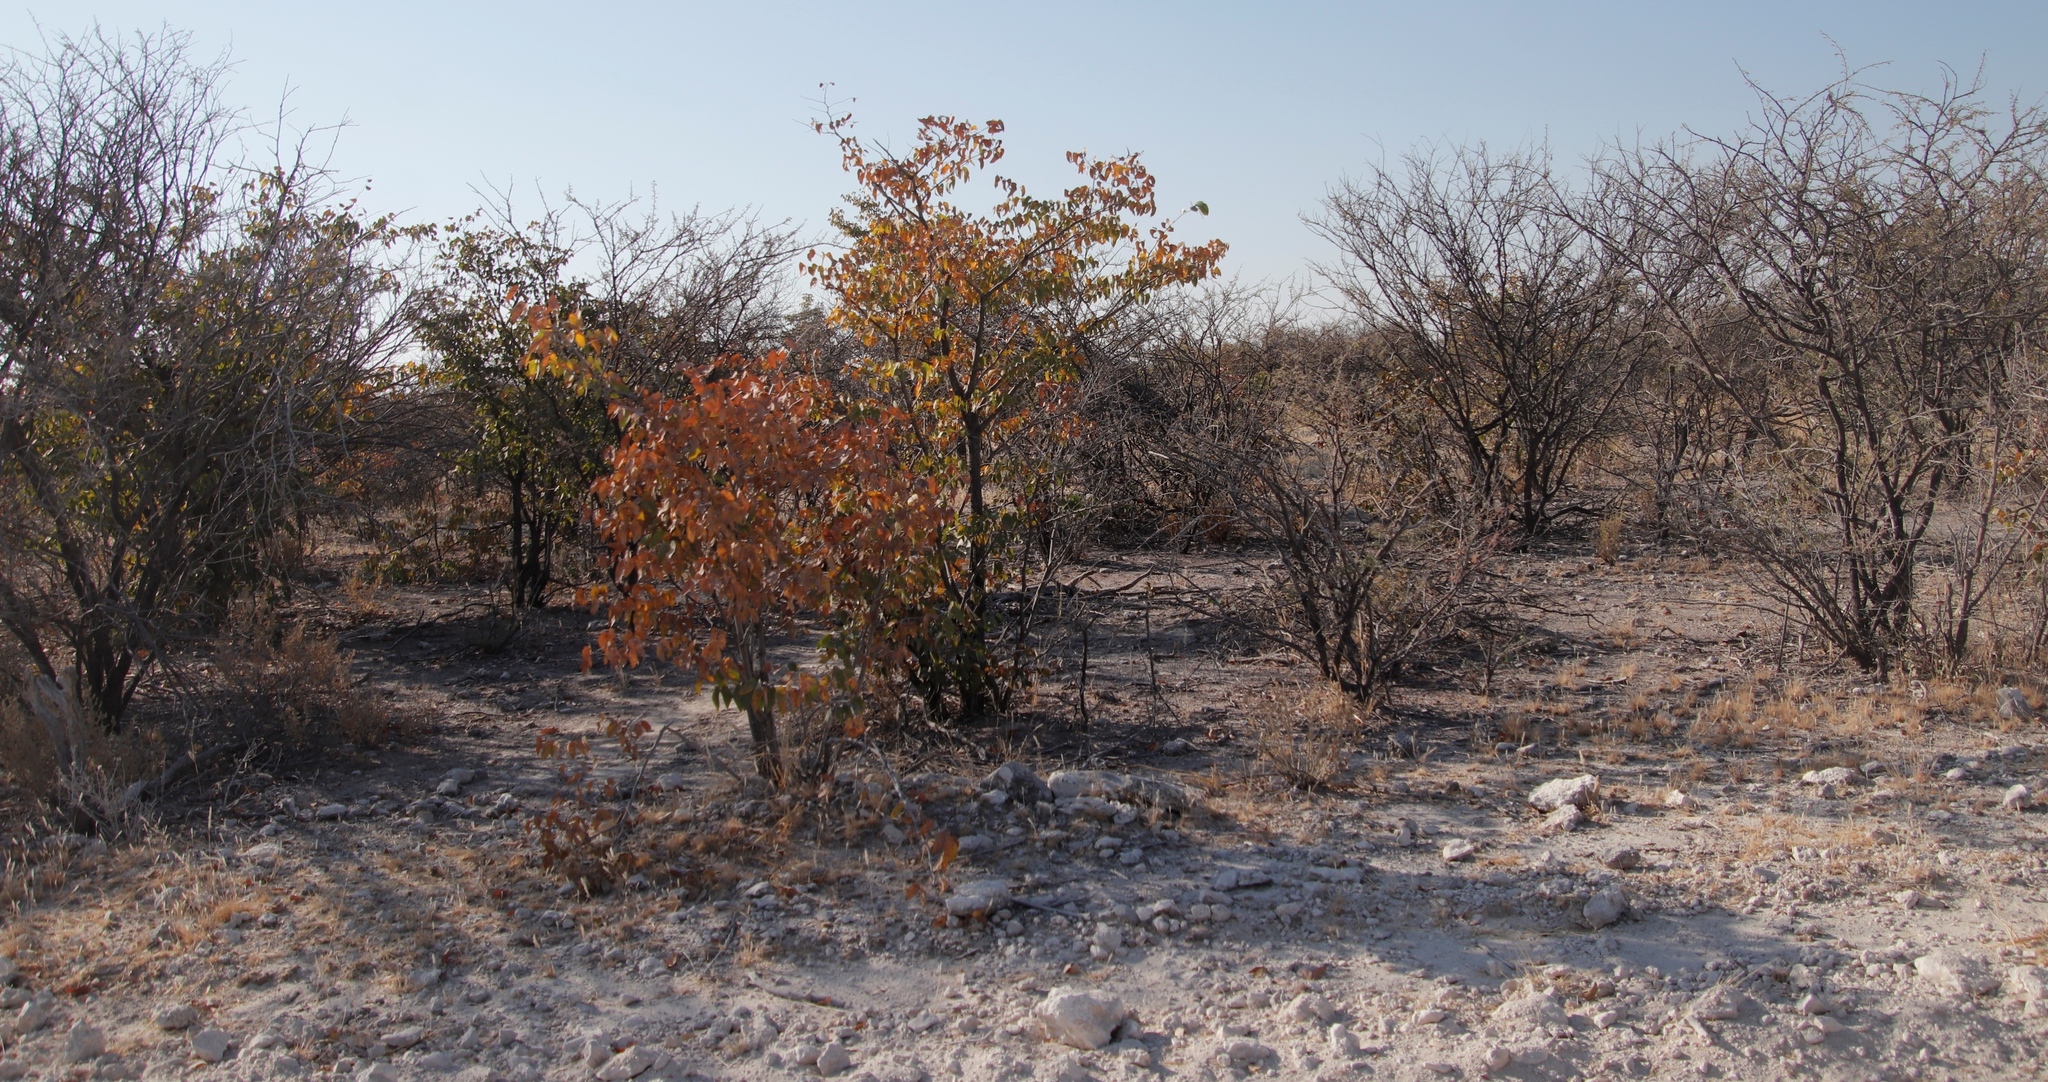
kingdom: Plantae
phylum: Tracheophyta
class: Magnoliopsida
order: Fabales
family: Fabaceae
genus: Colophospermum
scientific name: Colophospermum mopane
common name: Mopane
